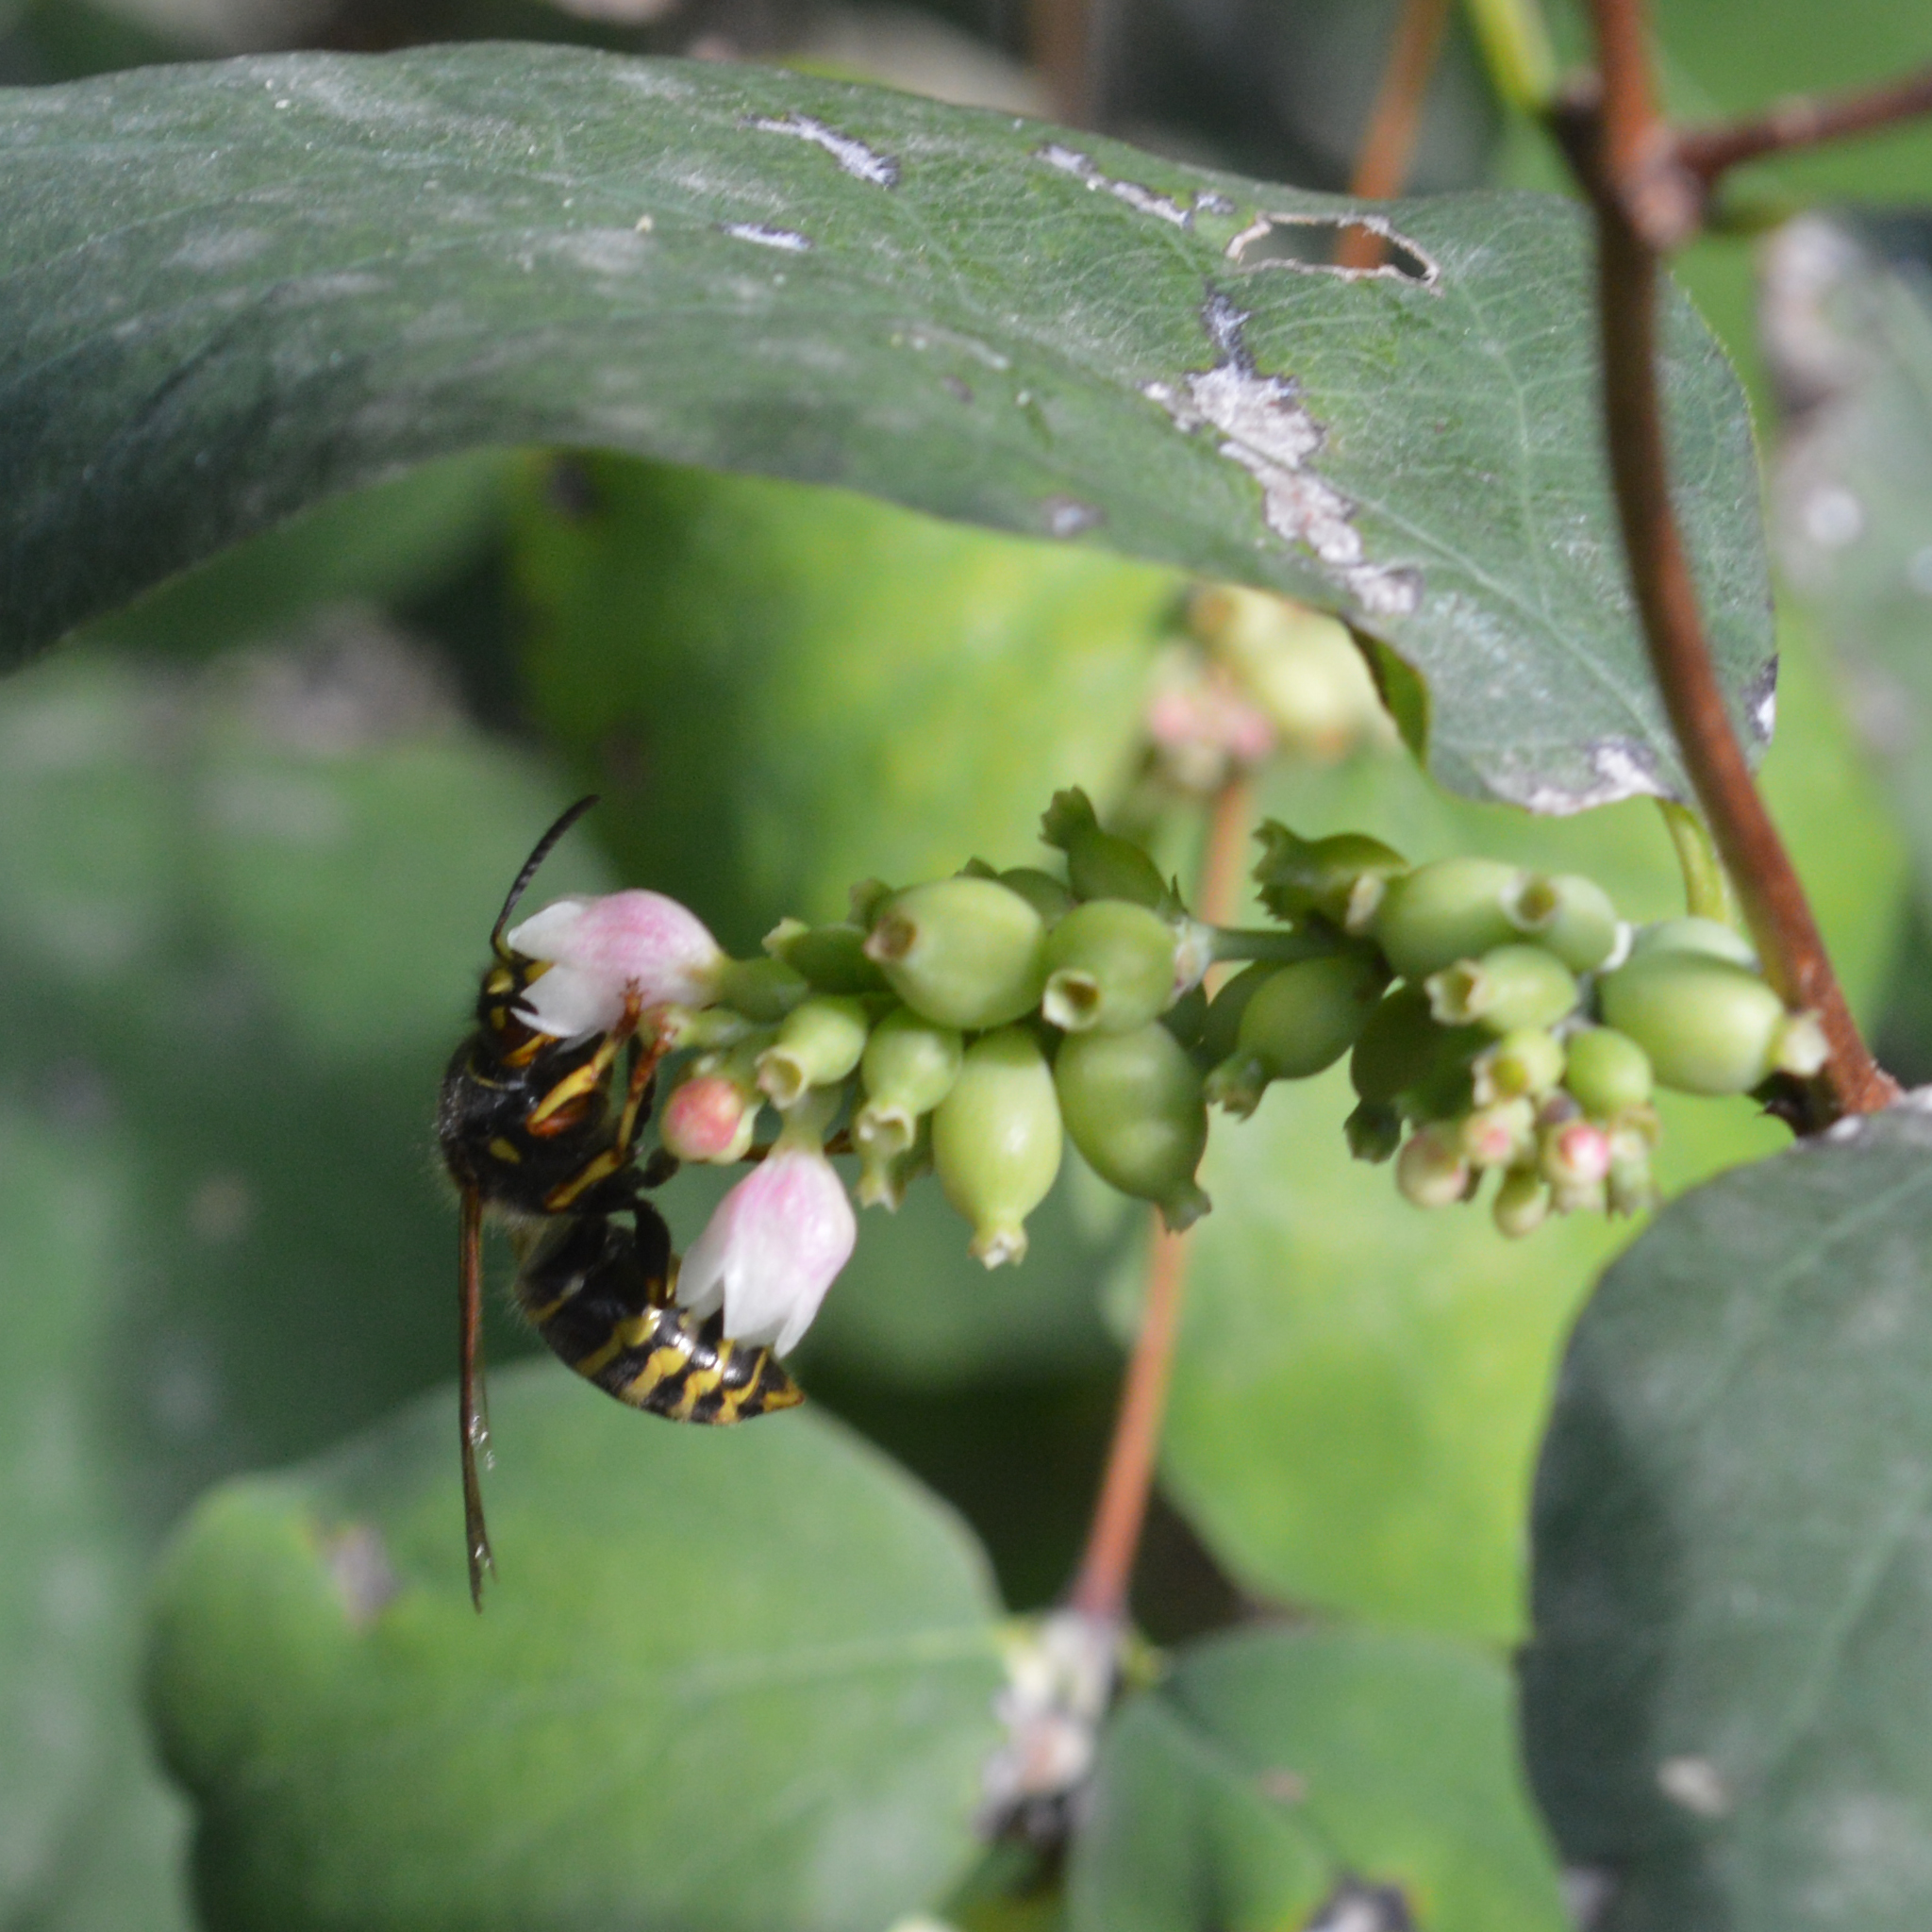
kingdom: Animalia
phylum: Arthropoda
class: Insecta
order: Hymenoptera
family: Vespidae
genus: Dolichovespula
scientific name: Dolichovespula media
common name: Median wasp
